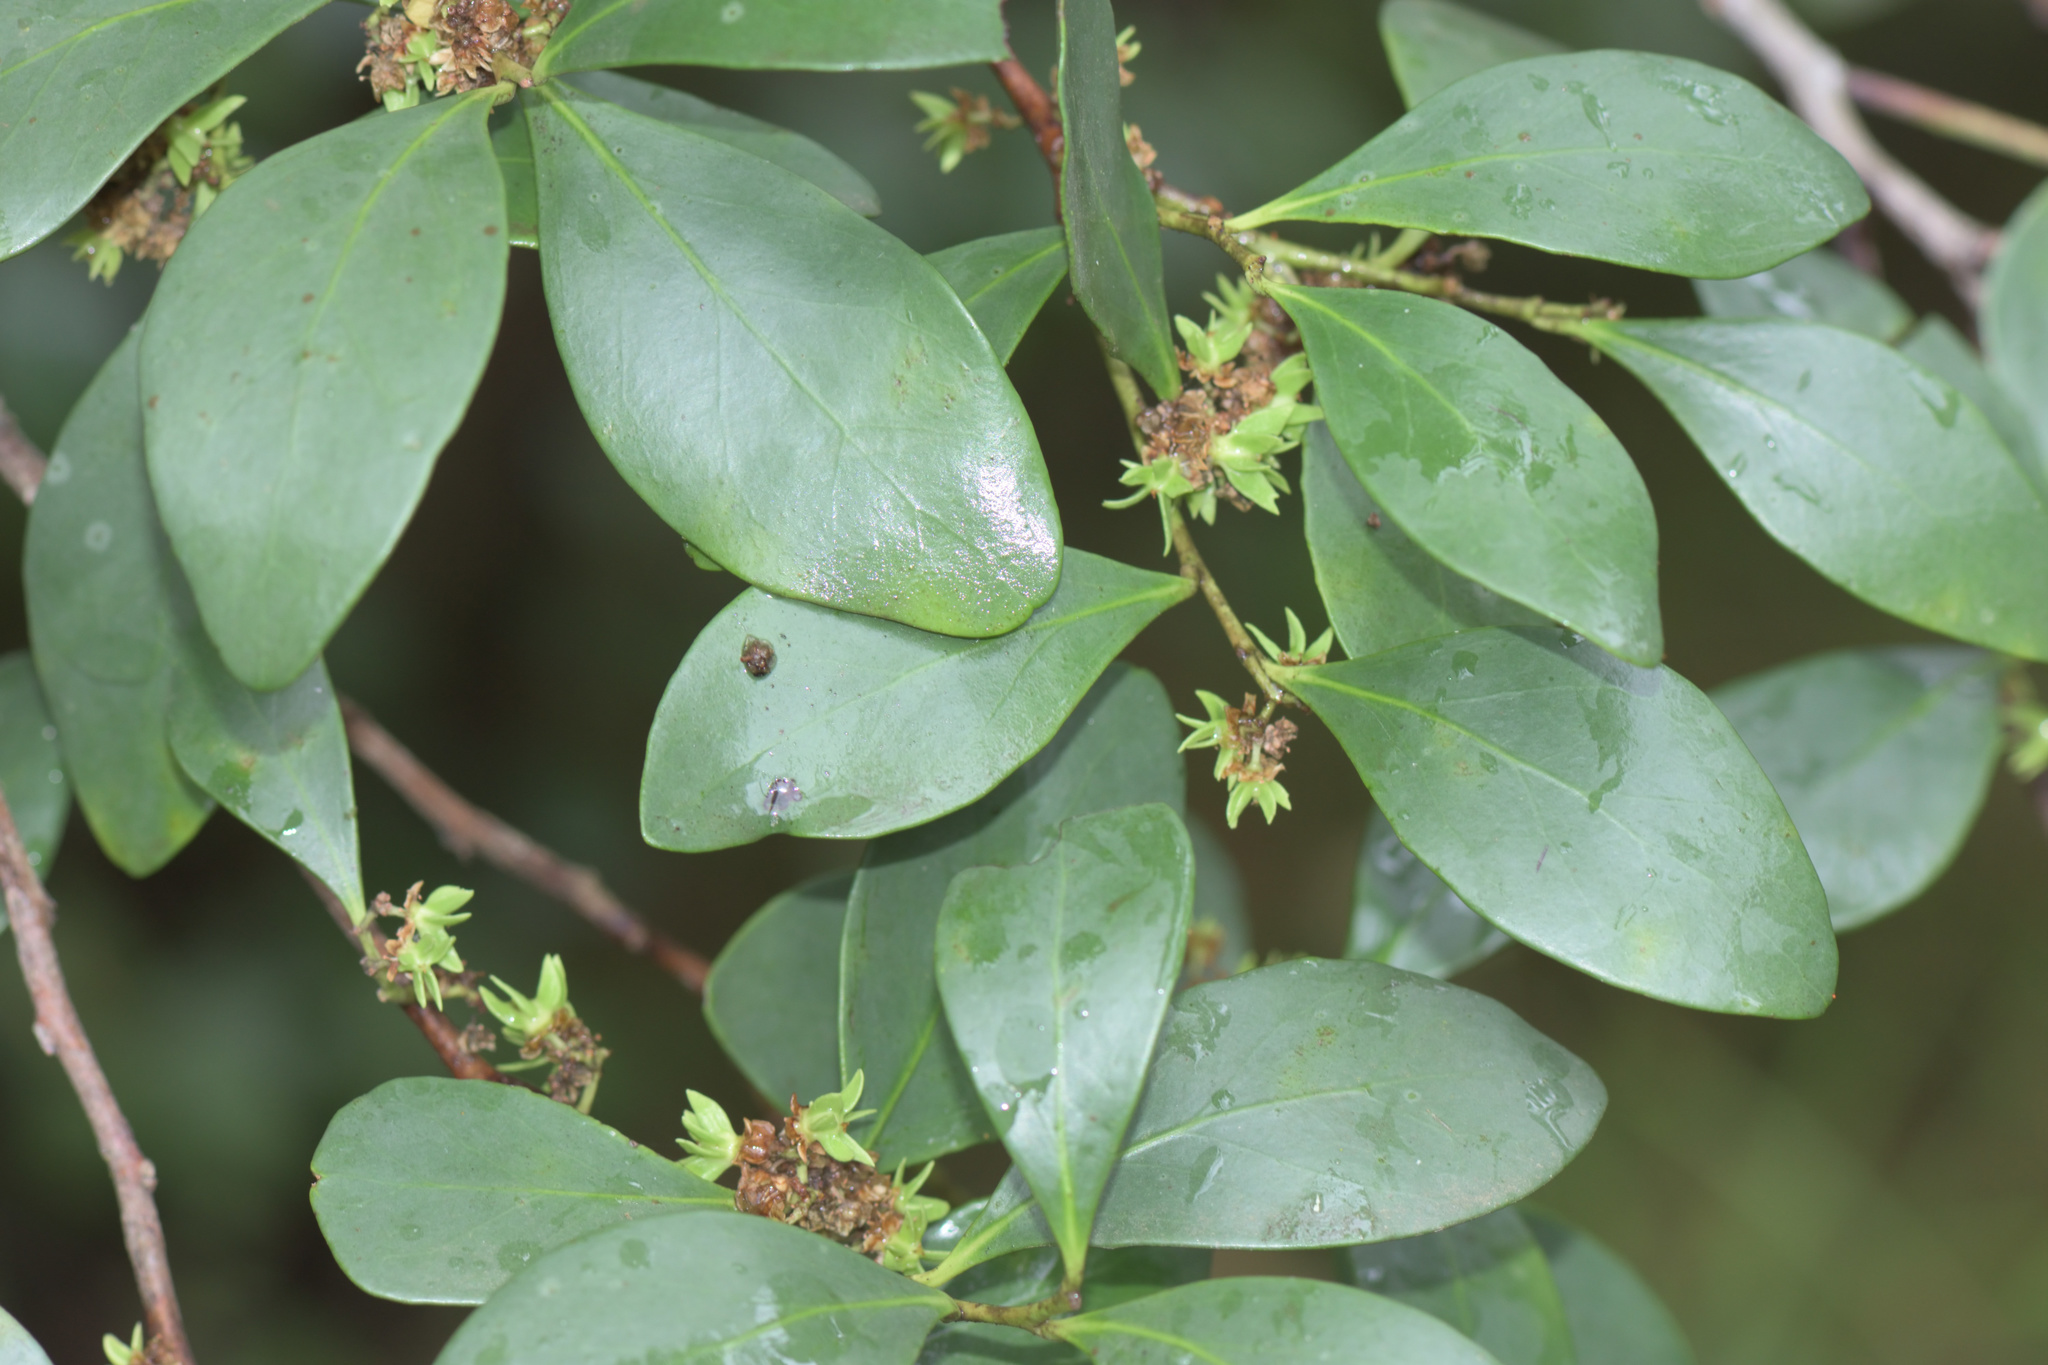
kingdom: Plantae
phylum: Tracheophyta
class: Magnoliopsida
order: Celastrales
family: Celastraceae
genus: Pterocelastrus
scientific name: Pterocelastrus tricuspidatus
